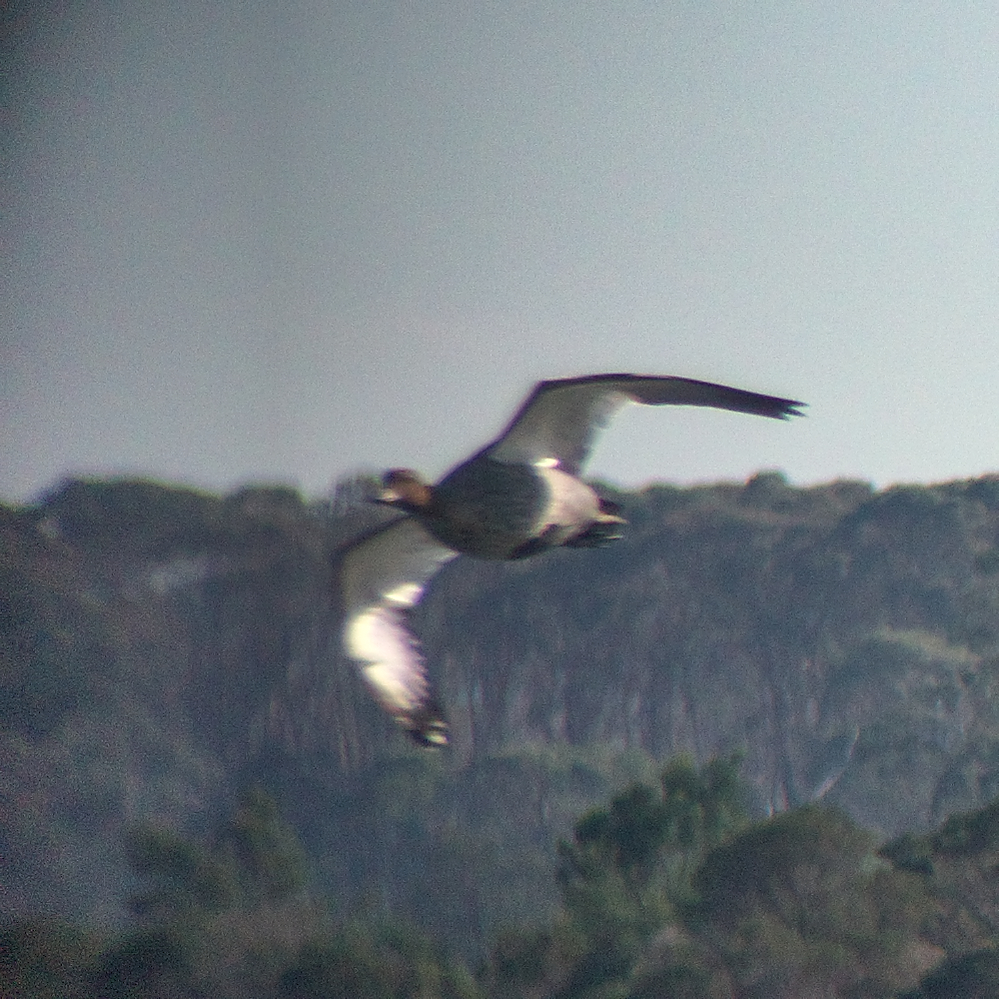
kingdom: Animalia
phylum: Chordata
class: Aves
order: Anseriformes
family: Anatidae
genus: Chenonetta
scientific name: Chenonetta jubata
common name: Maned duck
